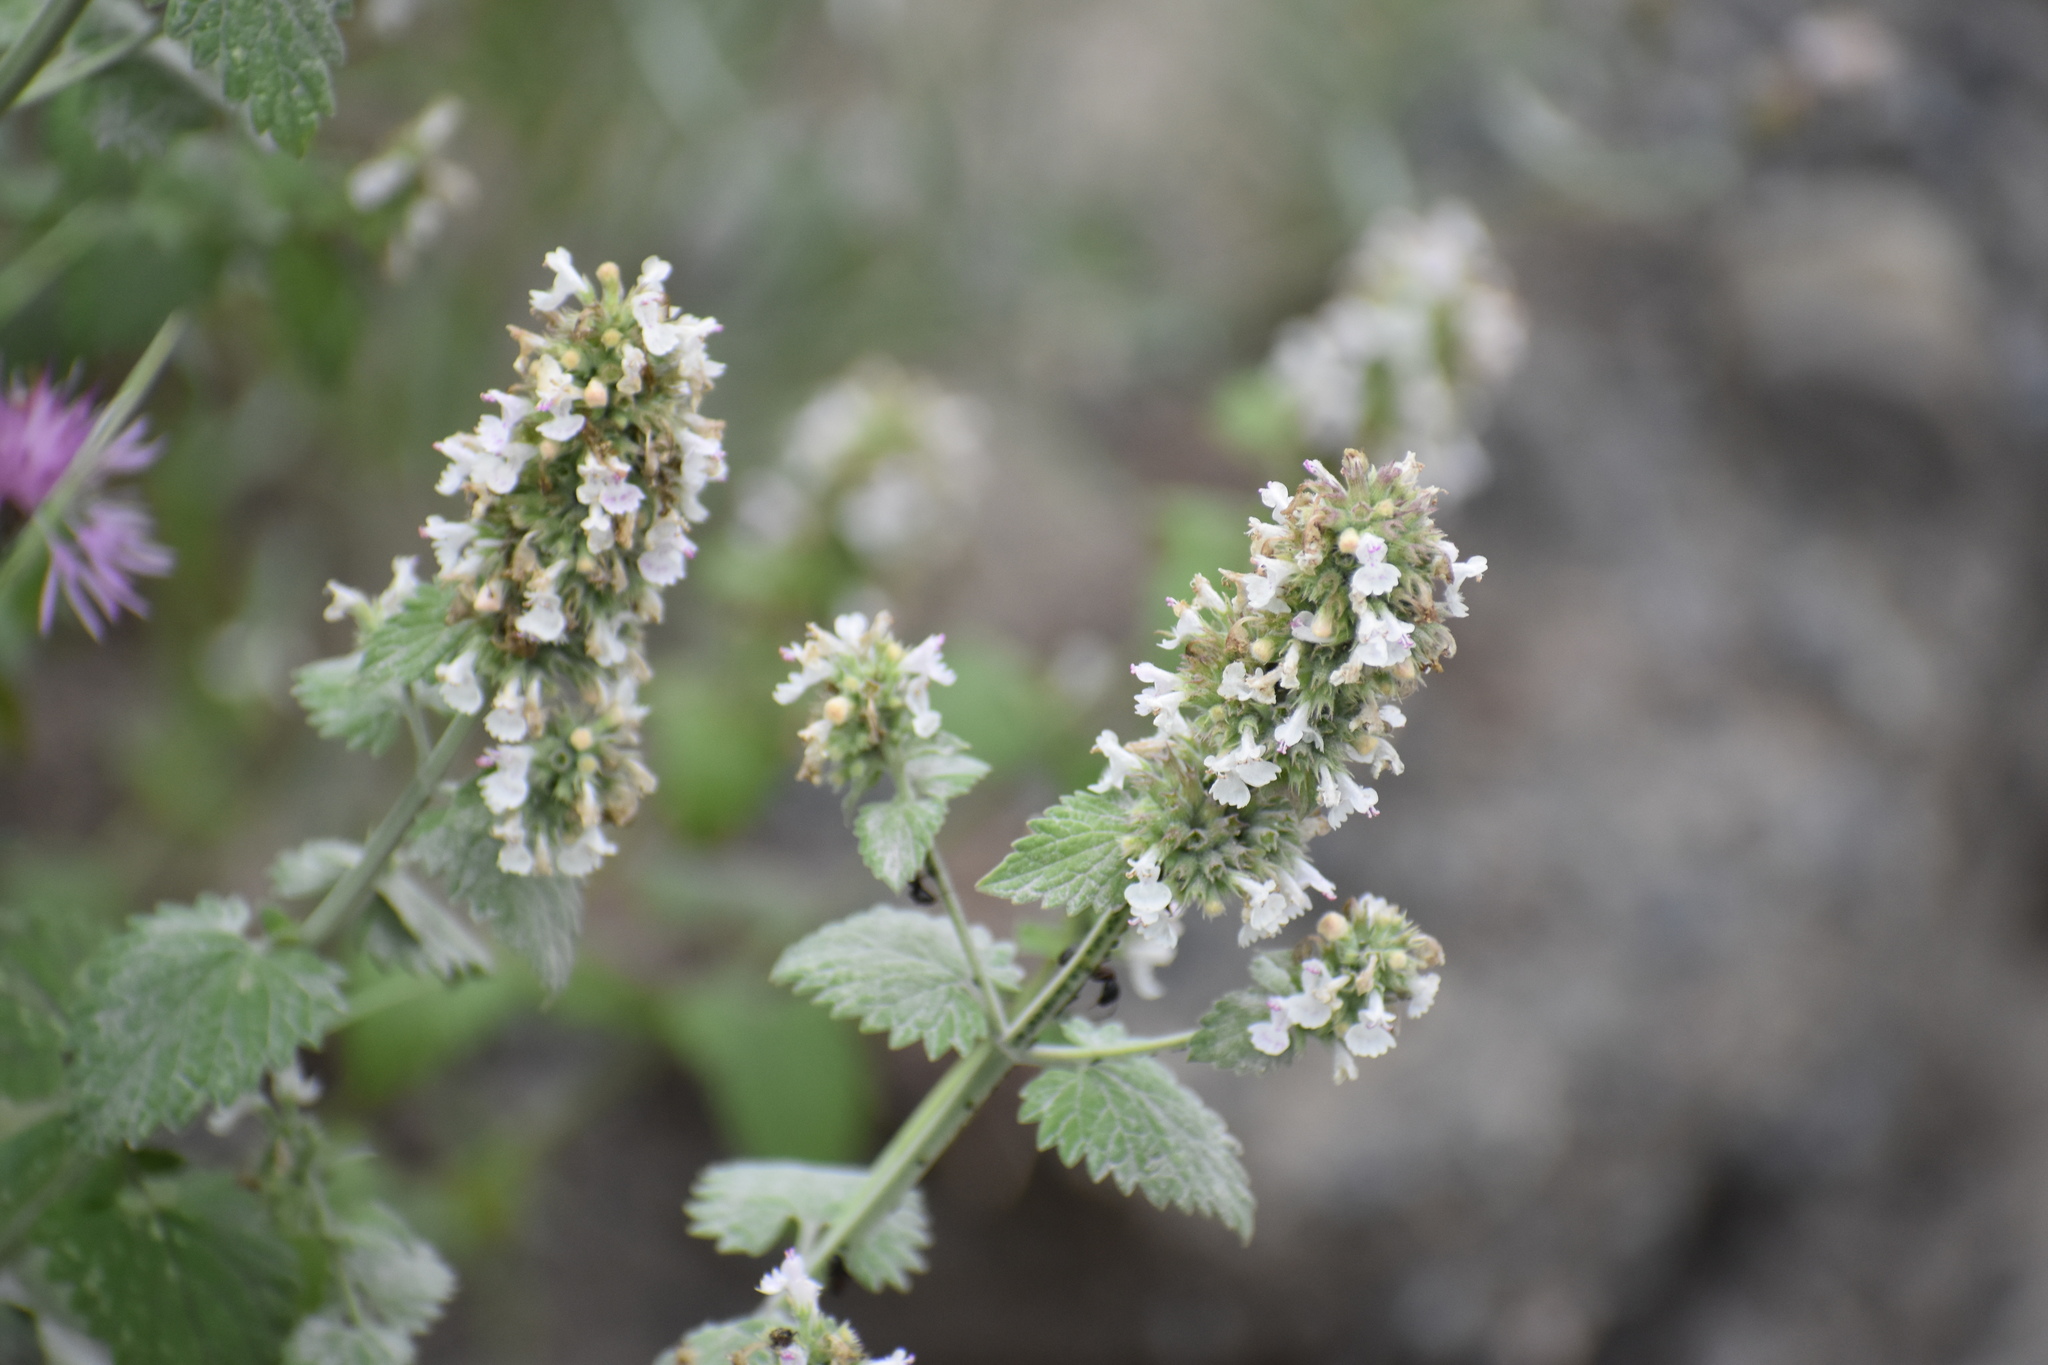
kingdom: Plantae
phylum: Tracheophyta
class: Magnoliopsida
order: Lamiales
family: Lamiaceae
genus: Nepeta
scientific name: Nepeta cataria
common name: Catnip
